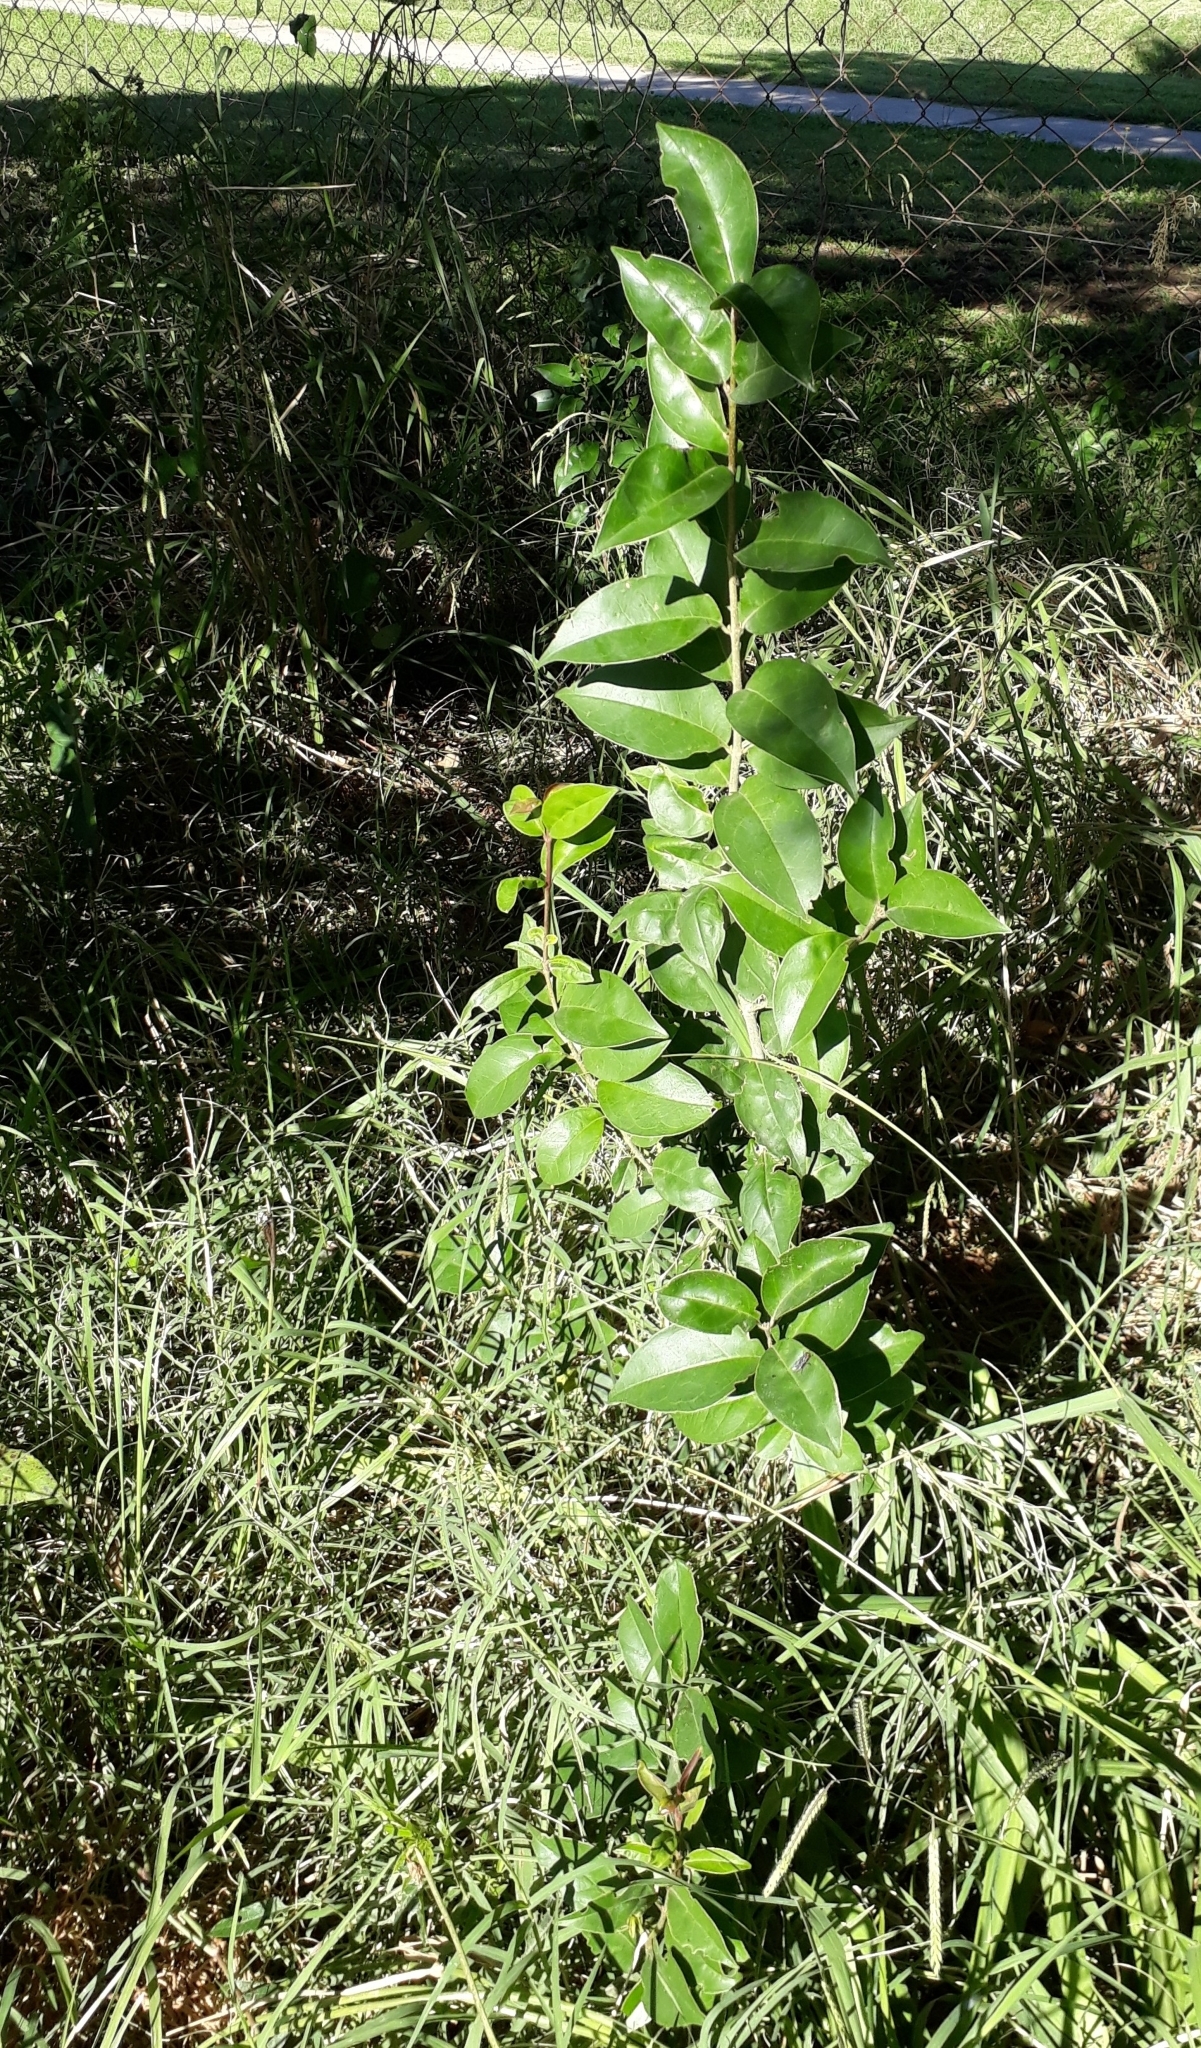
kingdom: Plantae
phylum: Tracheophyta
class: Magnoliopsida
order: Lamiales
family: Oleaceae
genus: Ligustrum
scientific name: Ligustrum lucidum
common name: Glossy privet
